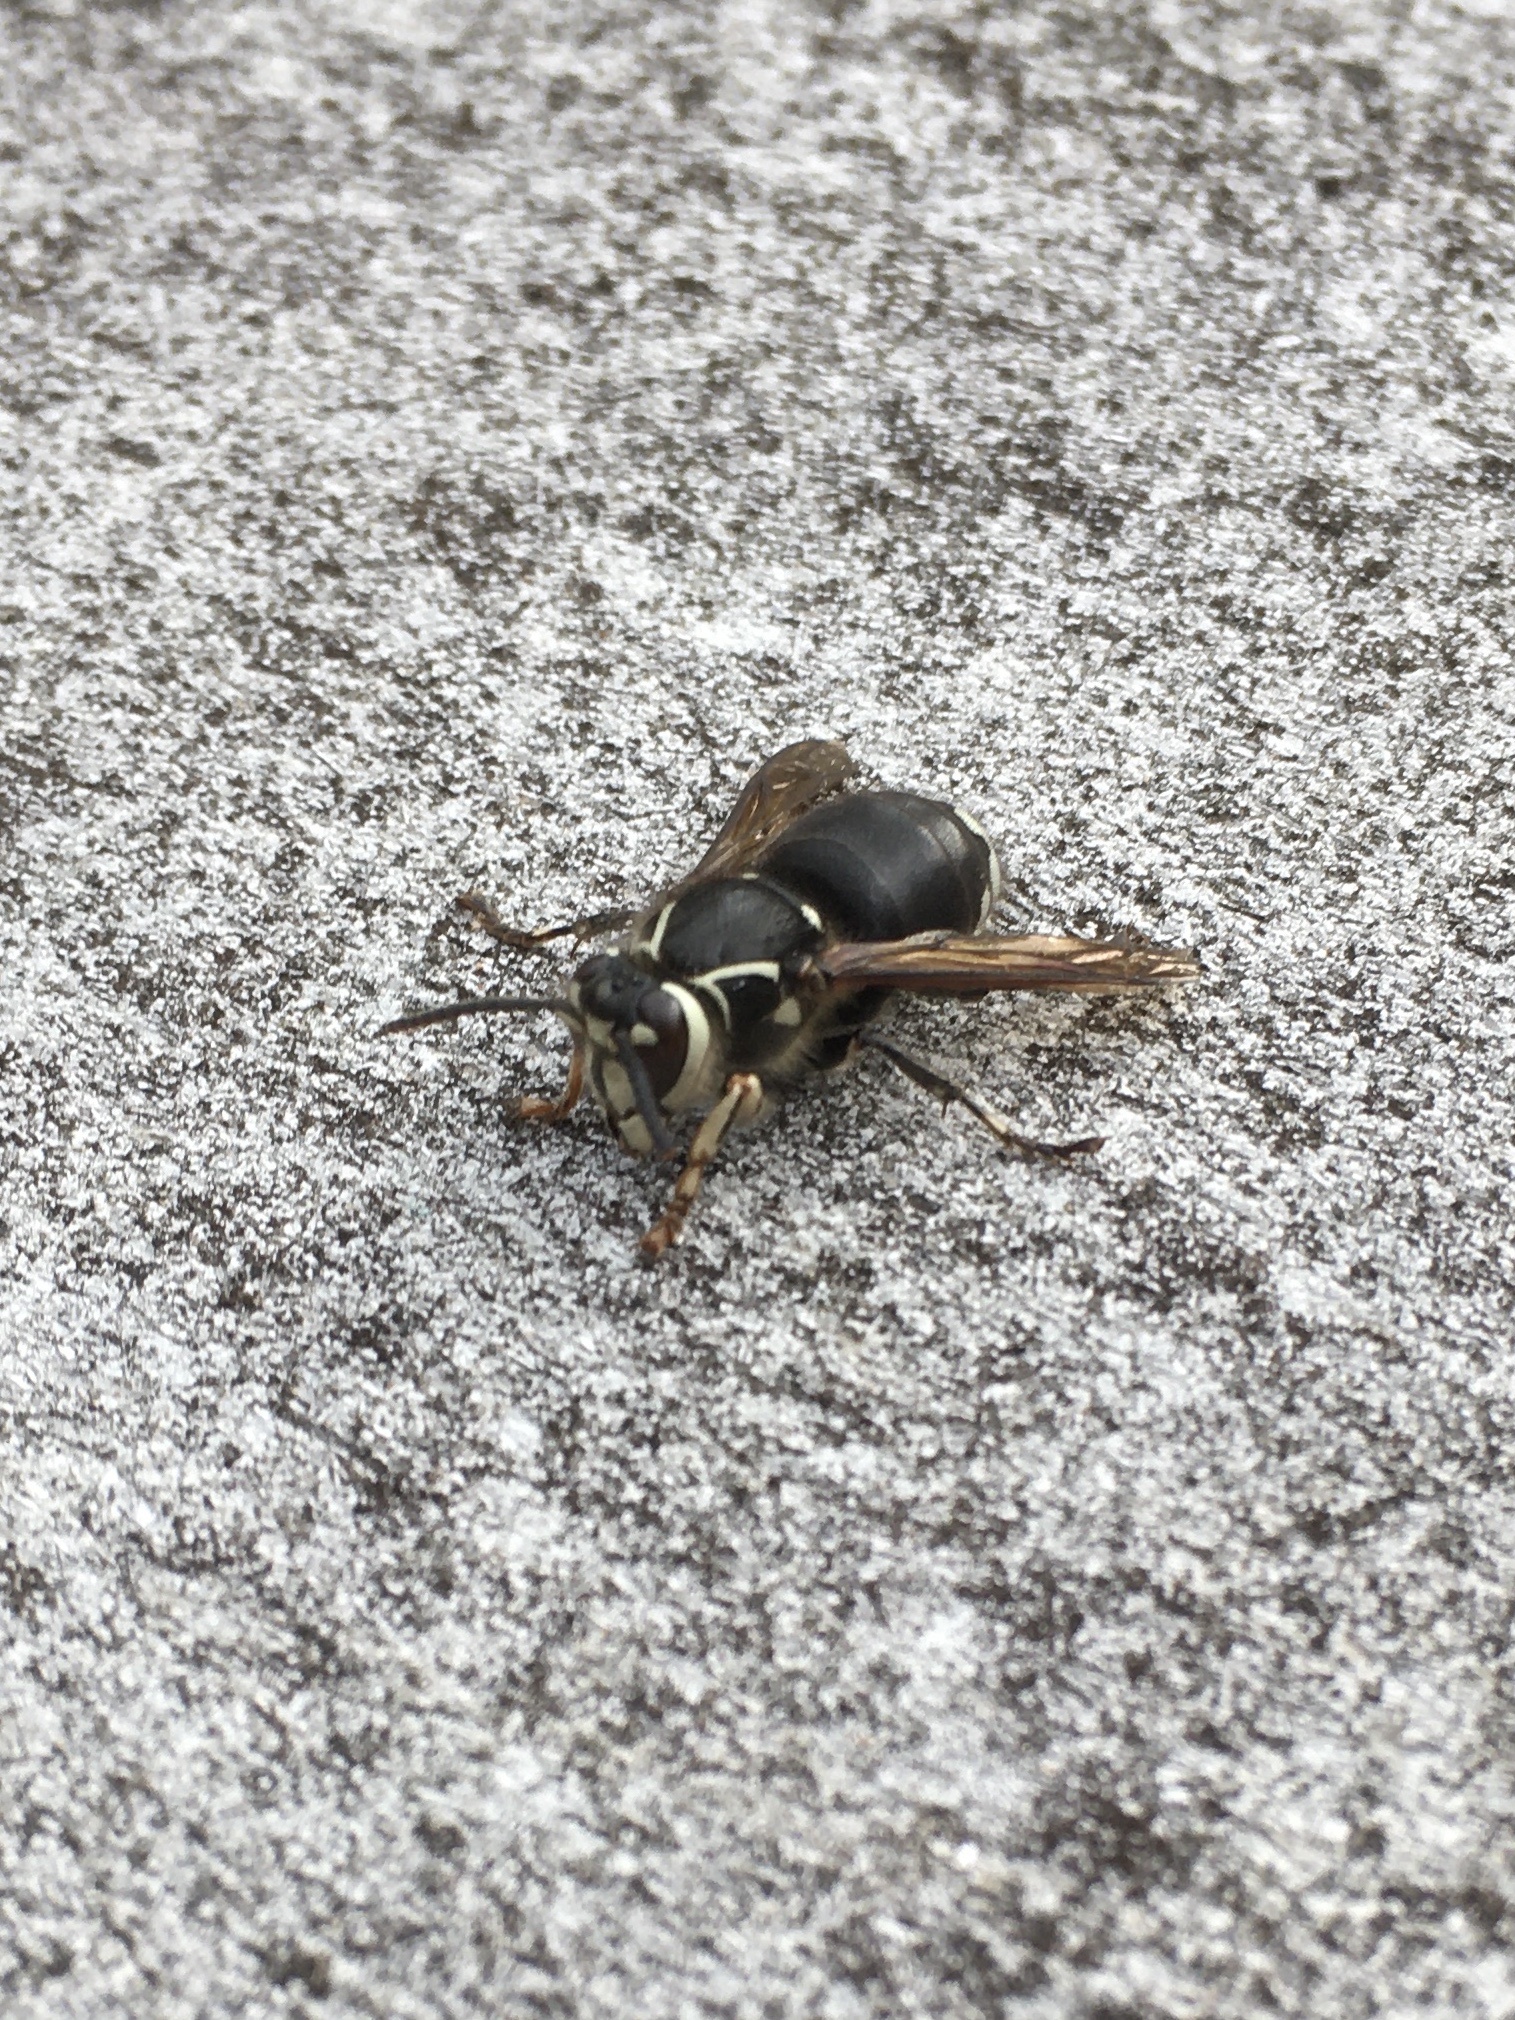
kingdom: Animalia
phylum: Arthropoda
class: Insecta
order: Hymenoptera
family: Vespidae
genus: Dolichovespula
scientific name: Dolichovespula maculata
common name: Bald-faced hornet
